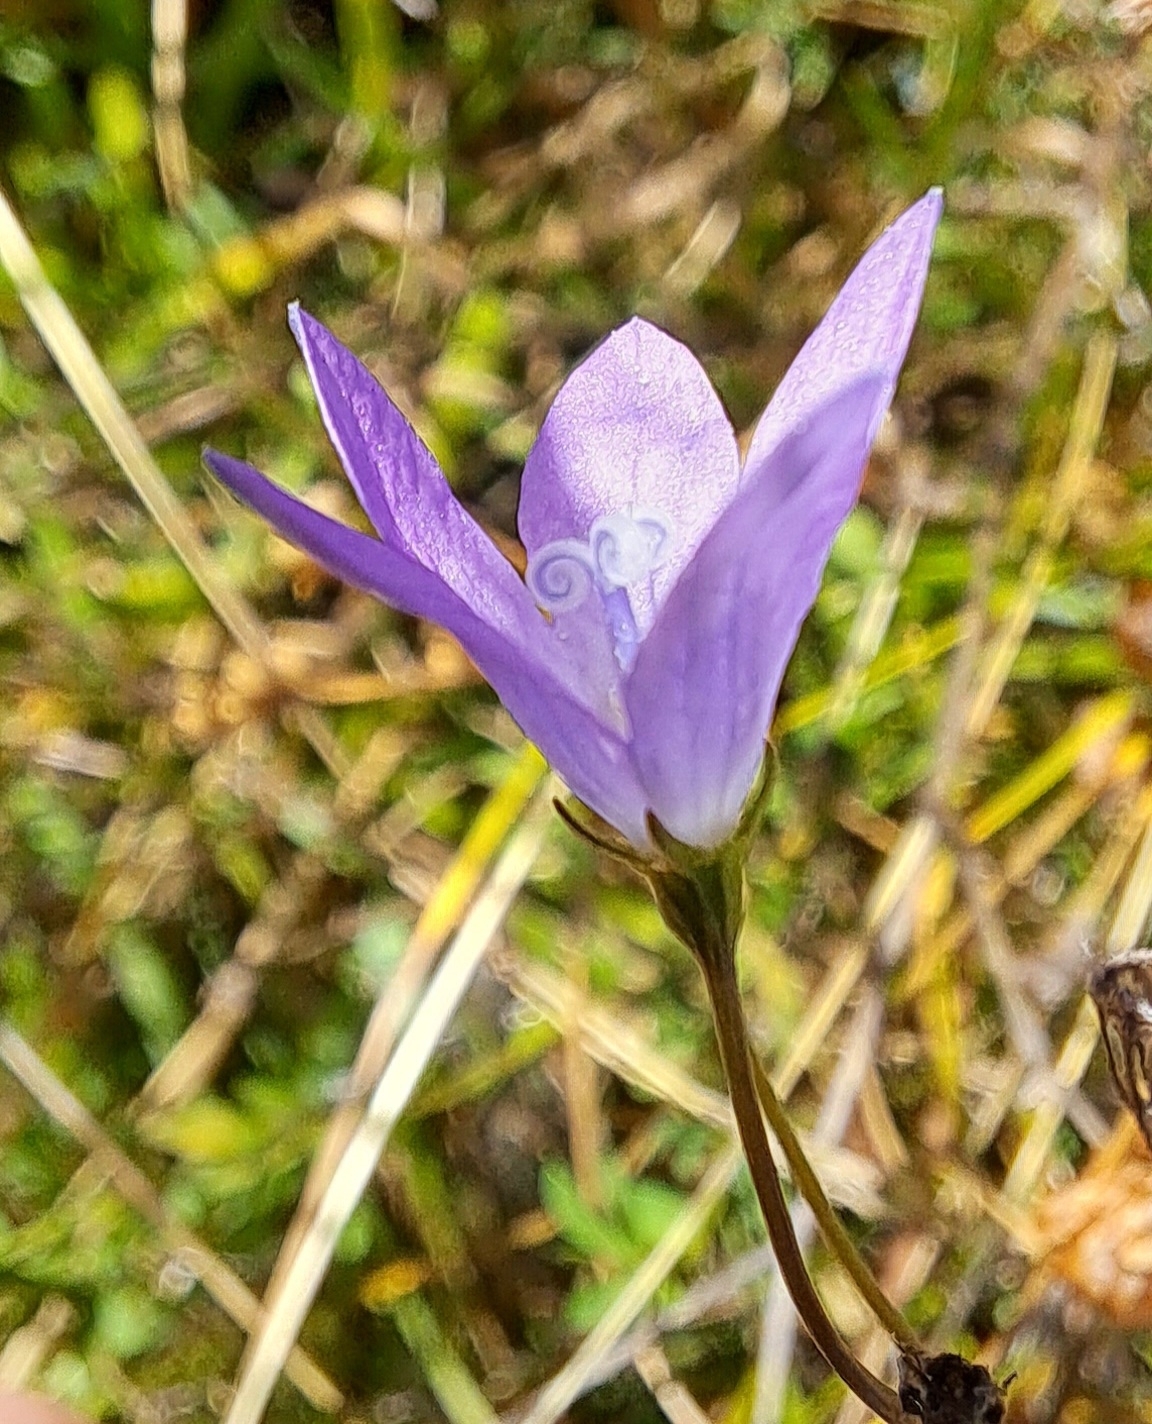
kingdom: Plantae
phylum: Tracheophyta
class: Magnoliopsida
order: Asterales
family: Campanulaceae
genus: Campanula
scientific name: Campanula patula
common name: Spreading bellflower
